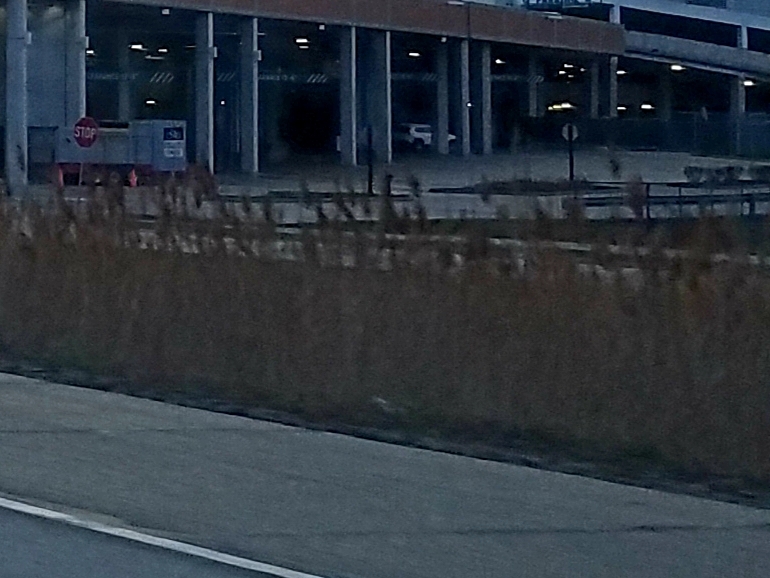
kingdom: Plantae
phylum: Tracheophyta
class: Liliopsida
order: Poales
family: Poaceae
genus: Phragmites
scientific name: Phragmites australis
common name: Common reed
